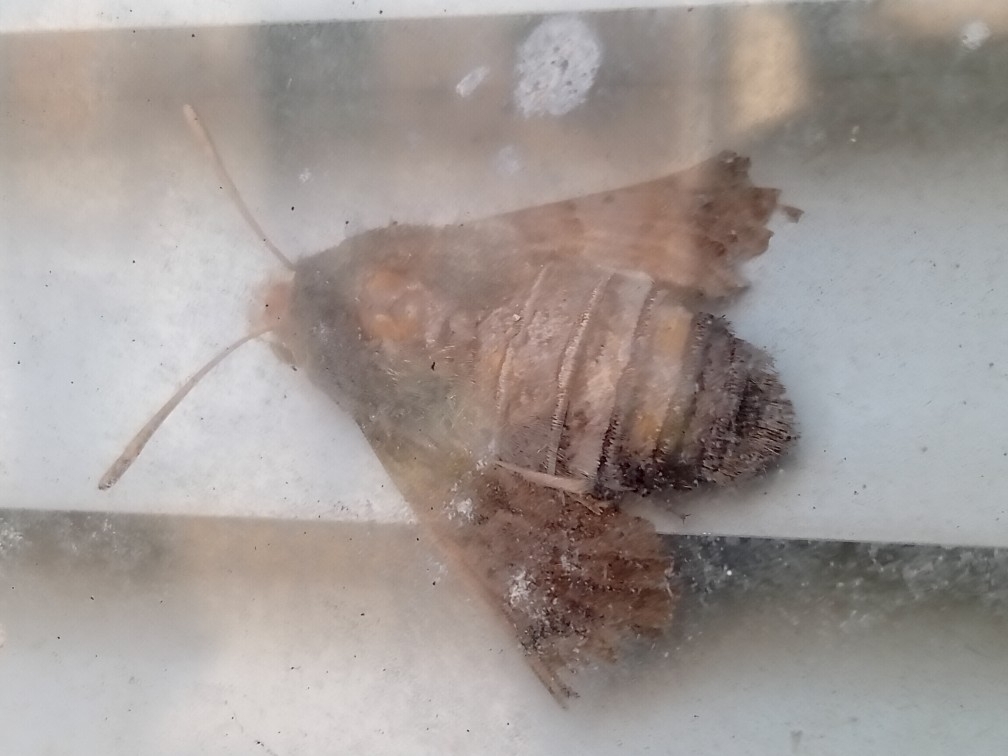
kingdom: Animalia
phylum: Arthropoda
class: Insecta
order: Lepidoptera
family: Sphingidae
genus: Macroglossum
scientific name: Macroglossum stellatarum
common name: Humming-bird hawk-moth
